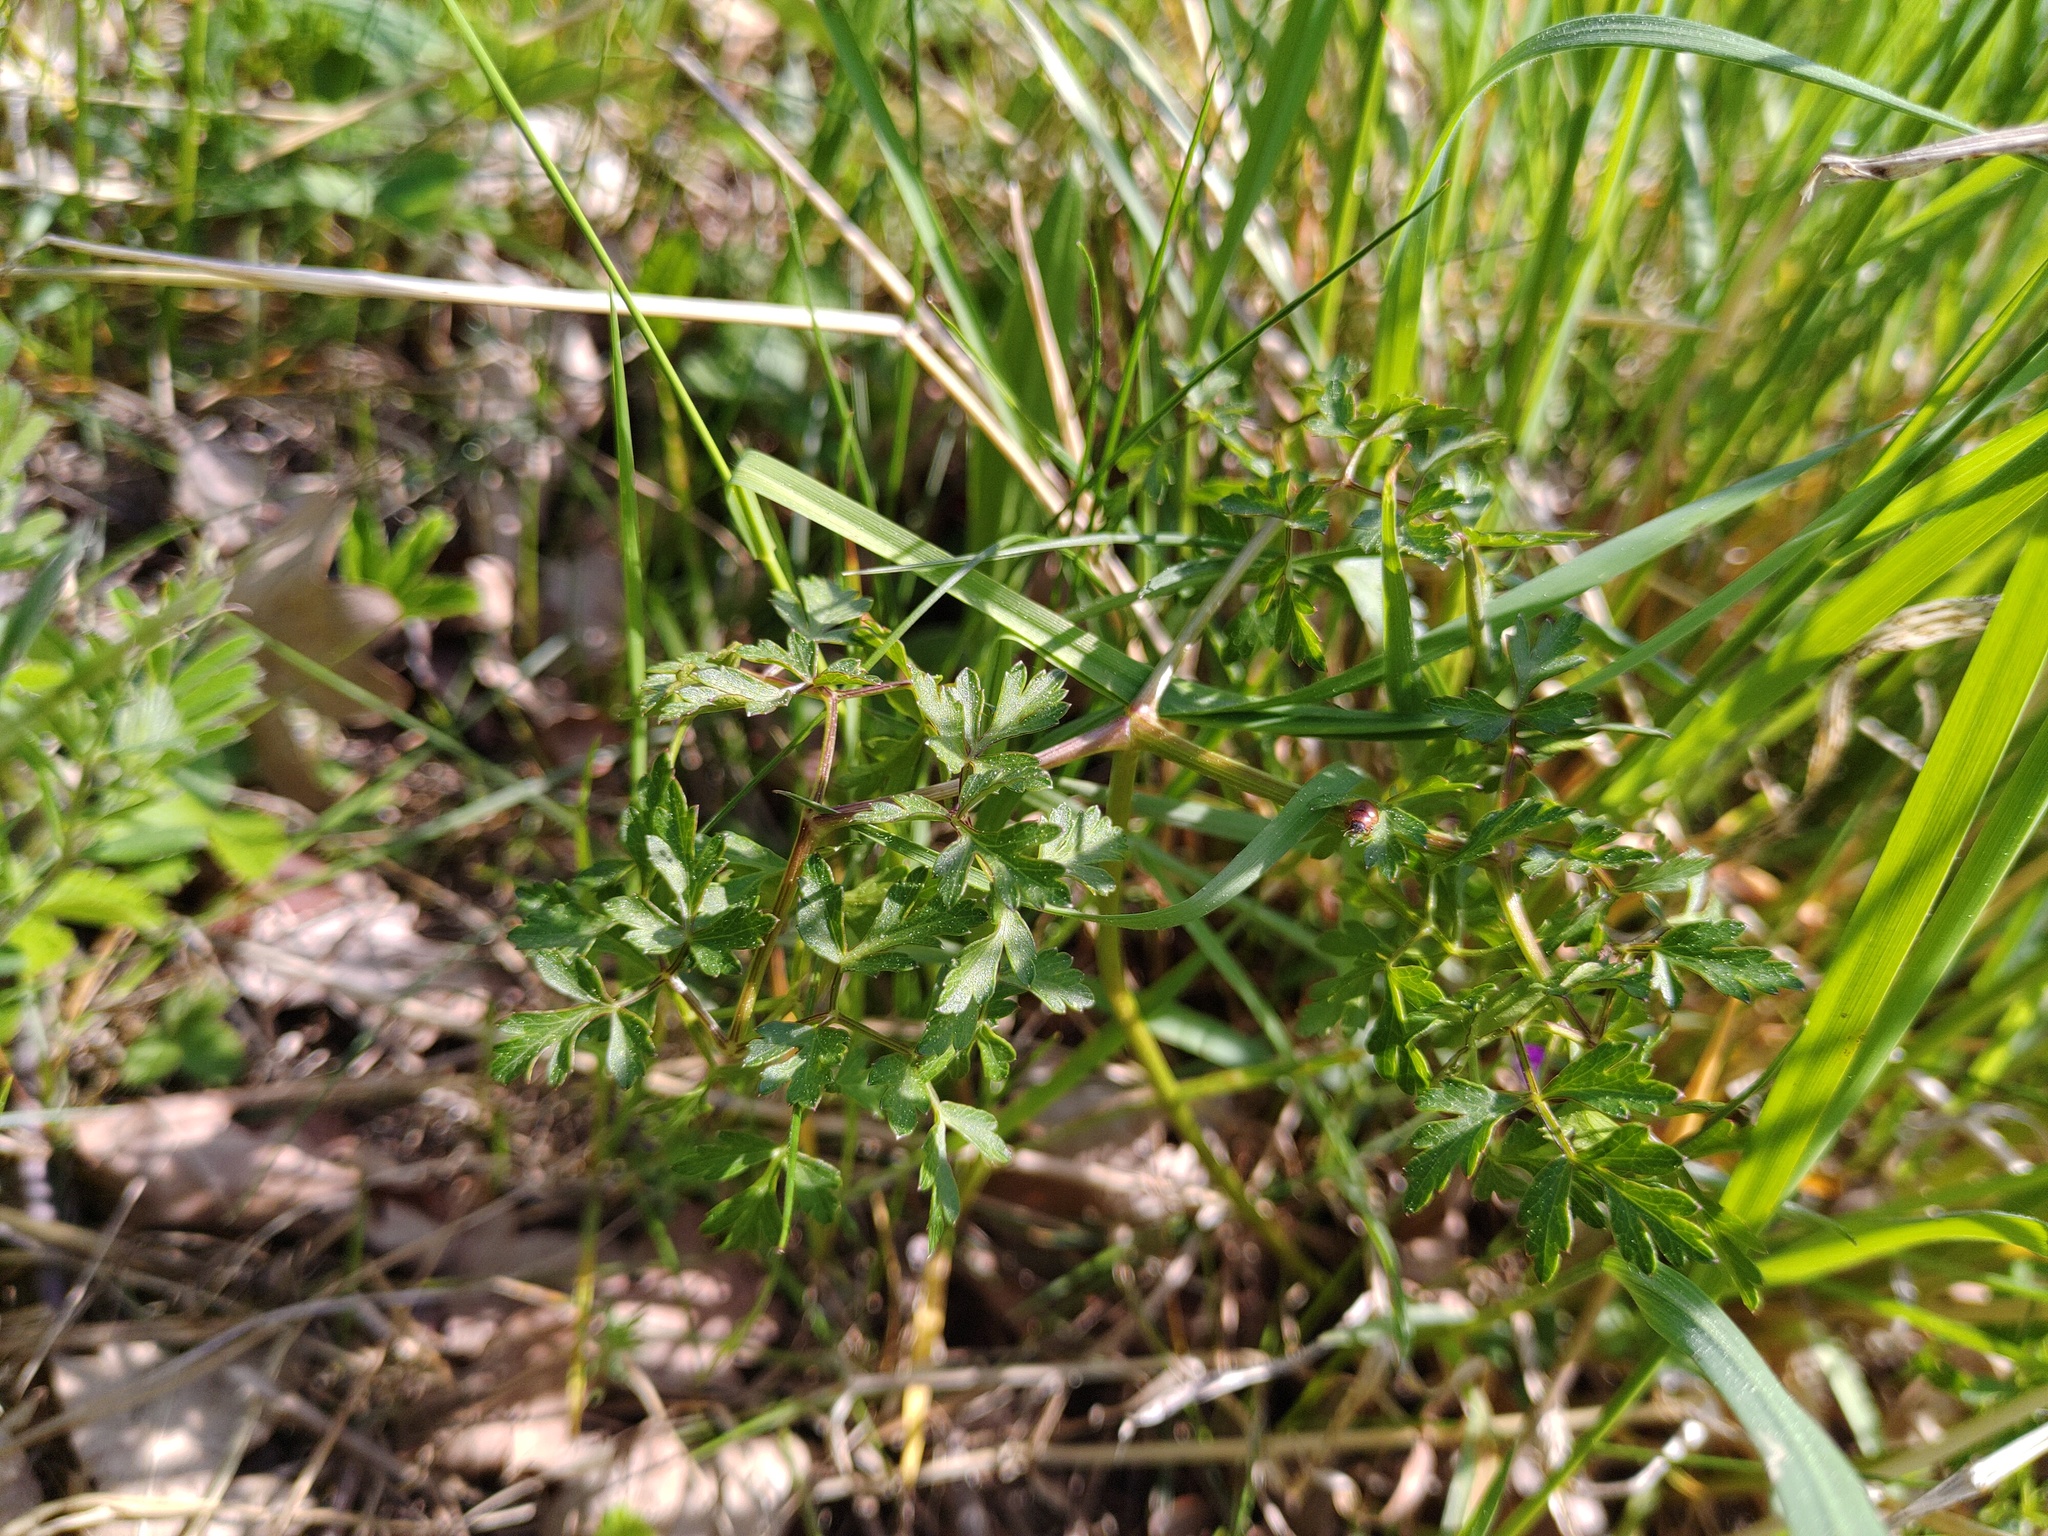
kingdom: Plantae
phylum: Tracheophyta
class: Magnoliopsida
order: Apiales
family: Apiaceae
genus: Oreoselinum
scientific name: Oreoselinum nigrum
